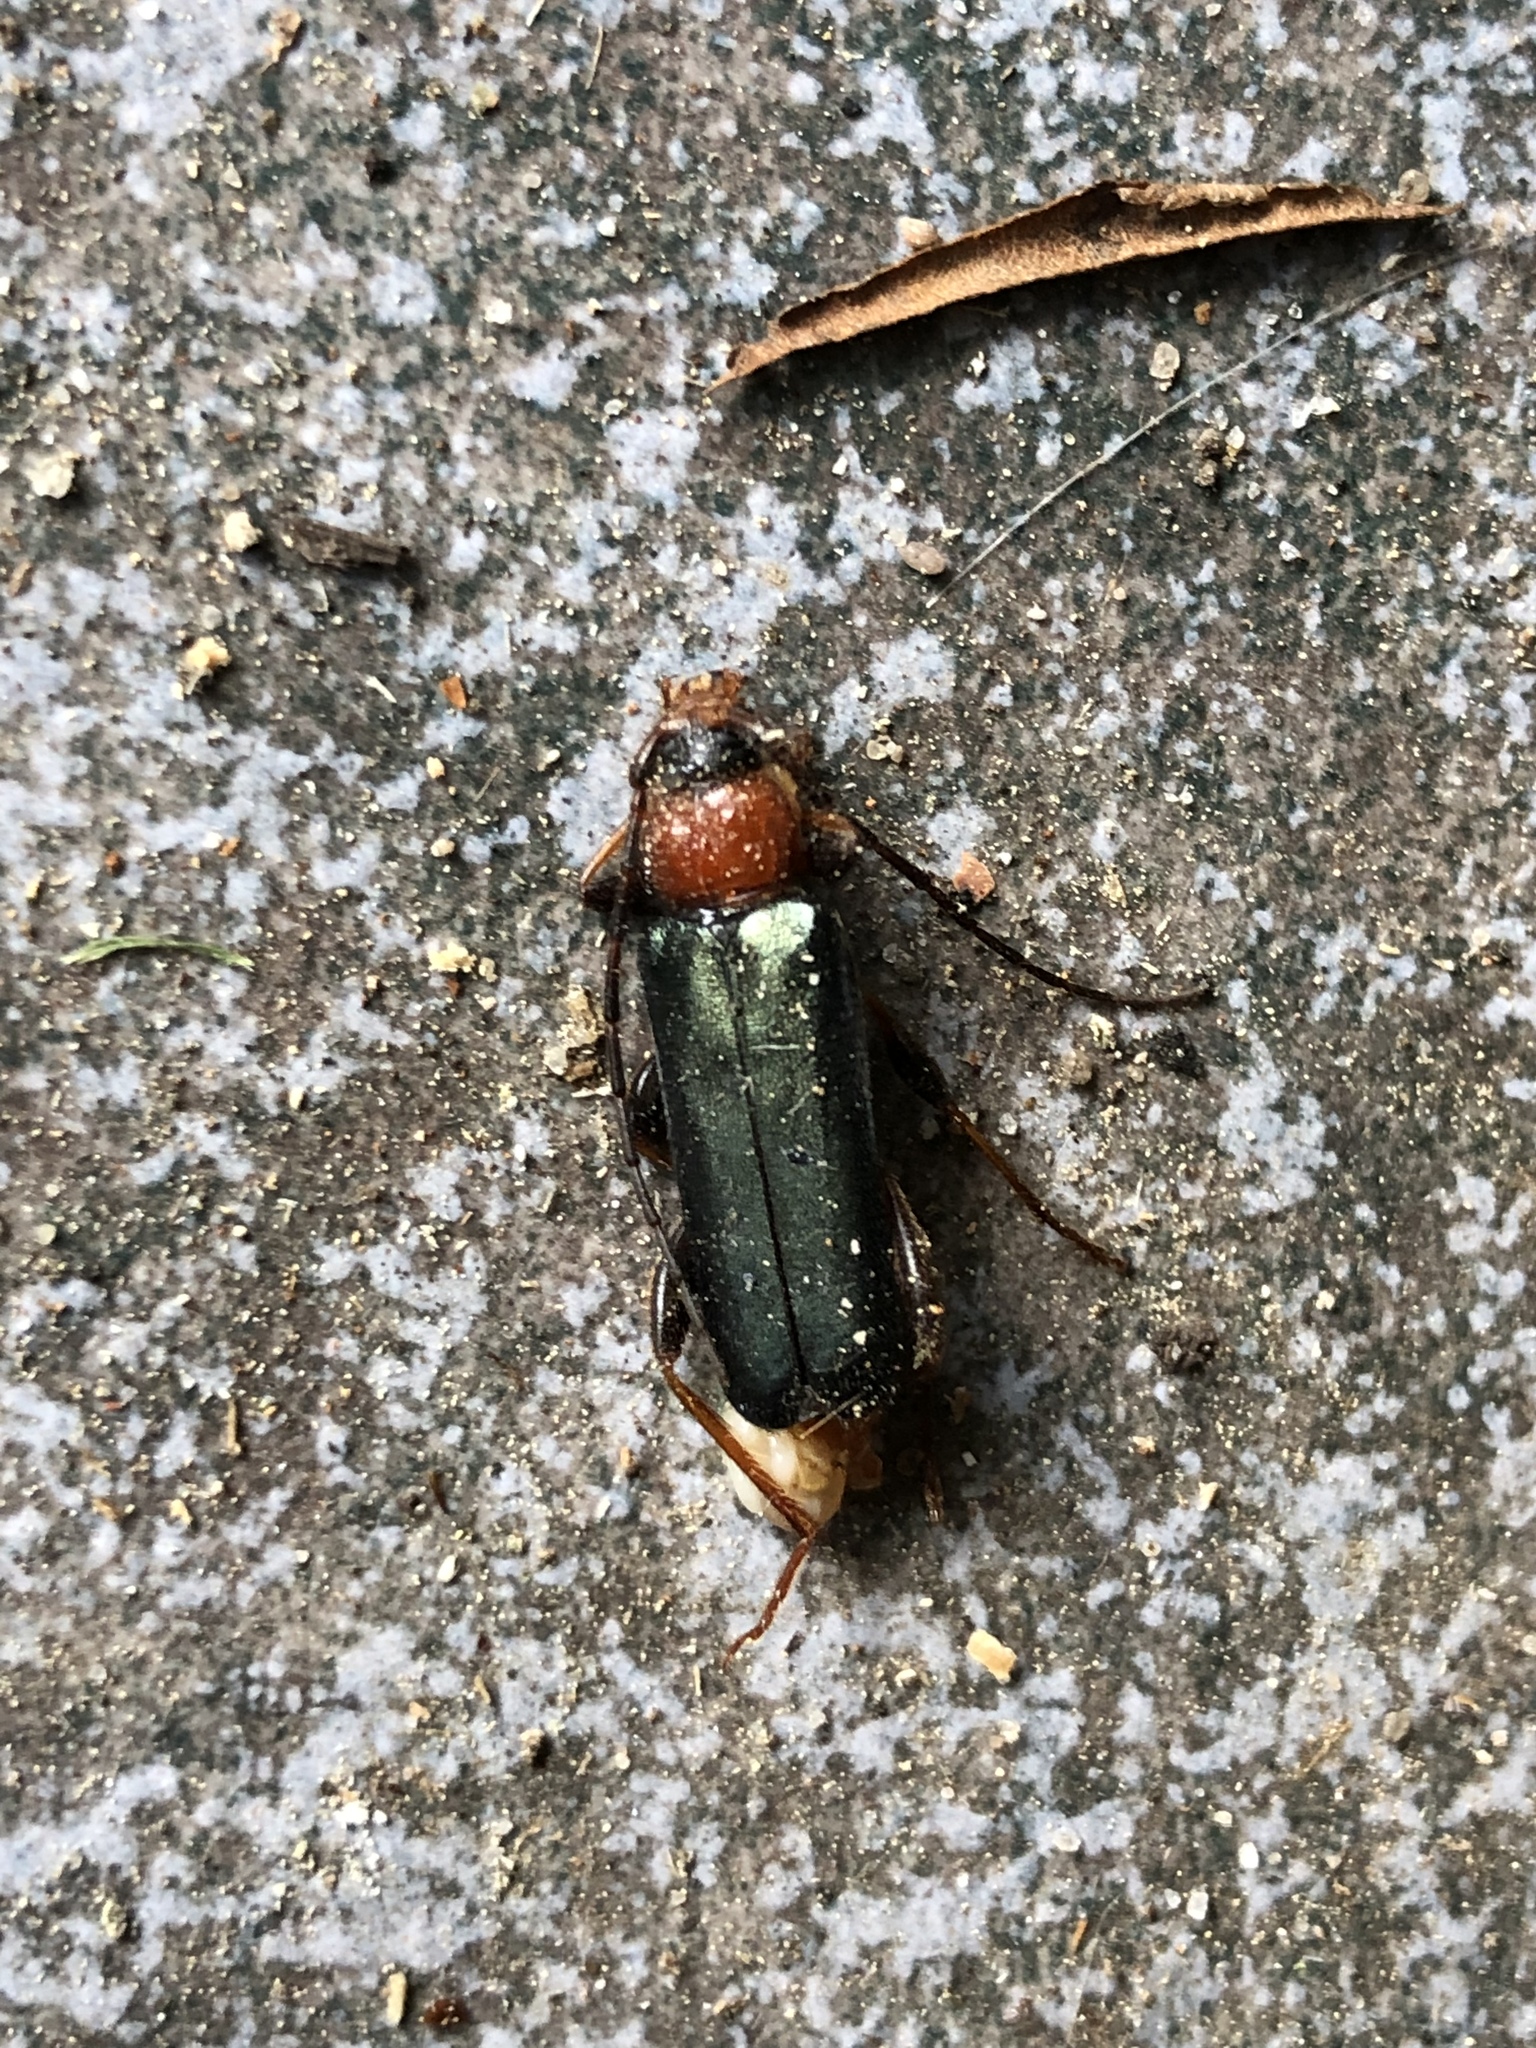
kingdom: Animalia
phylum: Arthropoda
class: Insecta
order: Coleoptera
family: Cerambycidae
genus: Phymatodes
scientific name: Phymatodes testaceus
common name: Long-horned beetle
